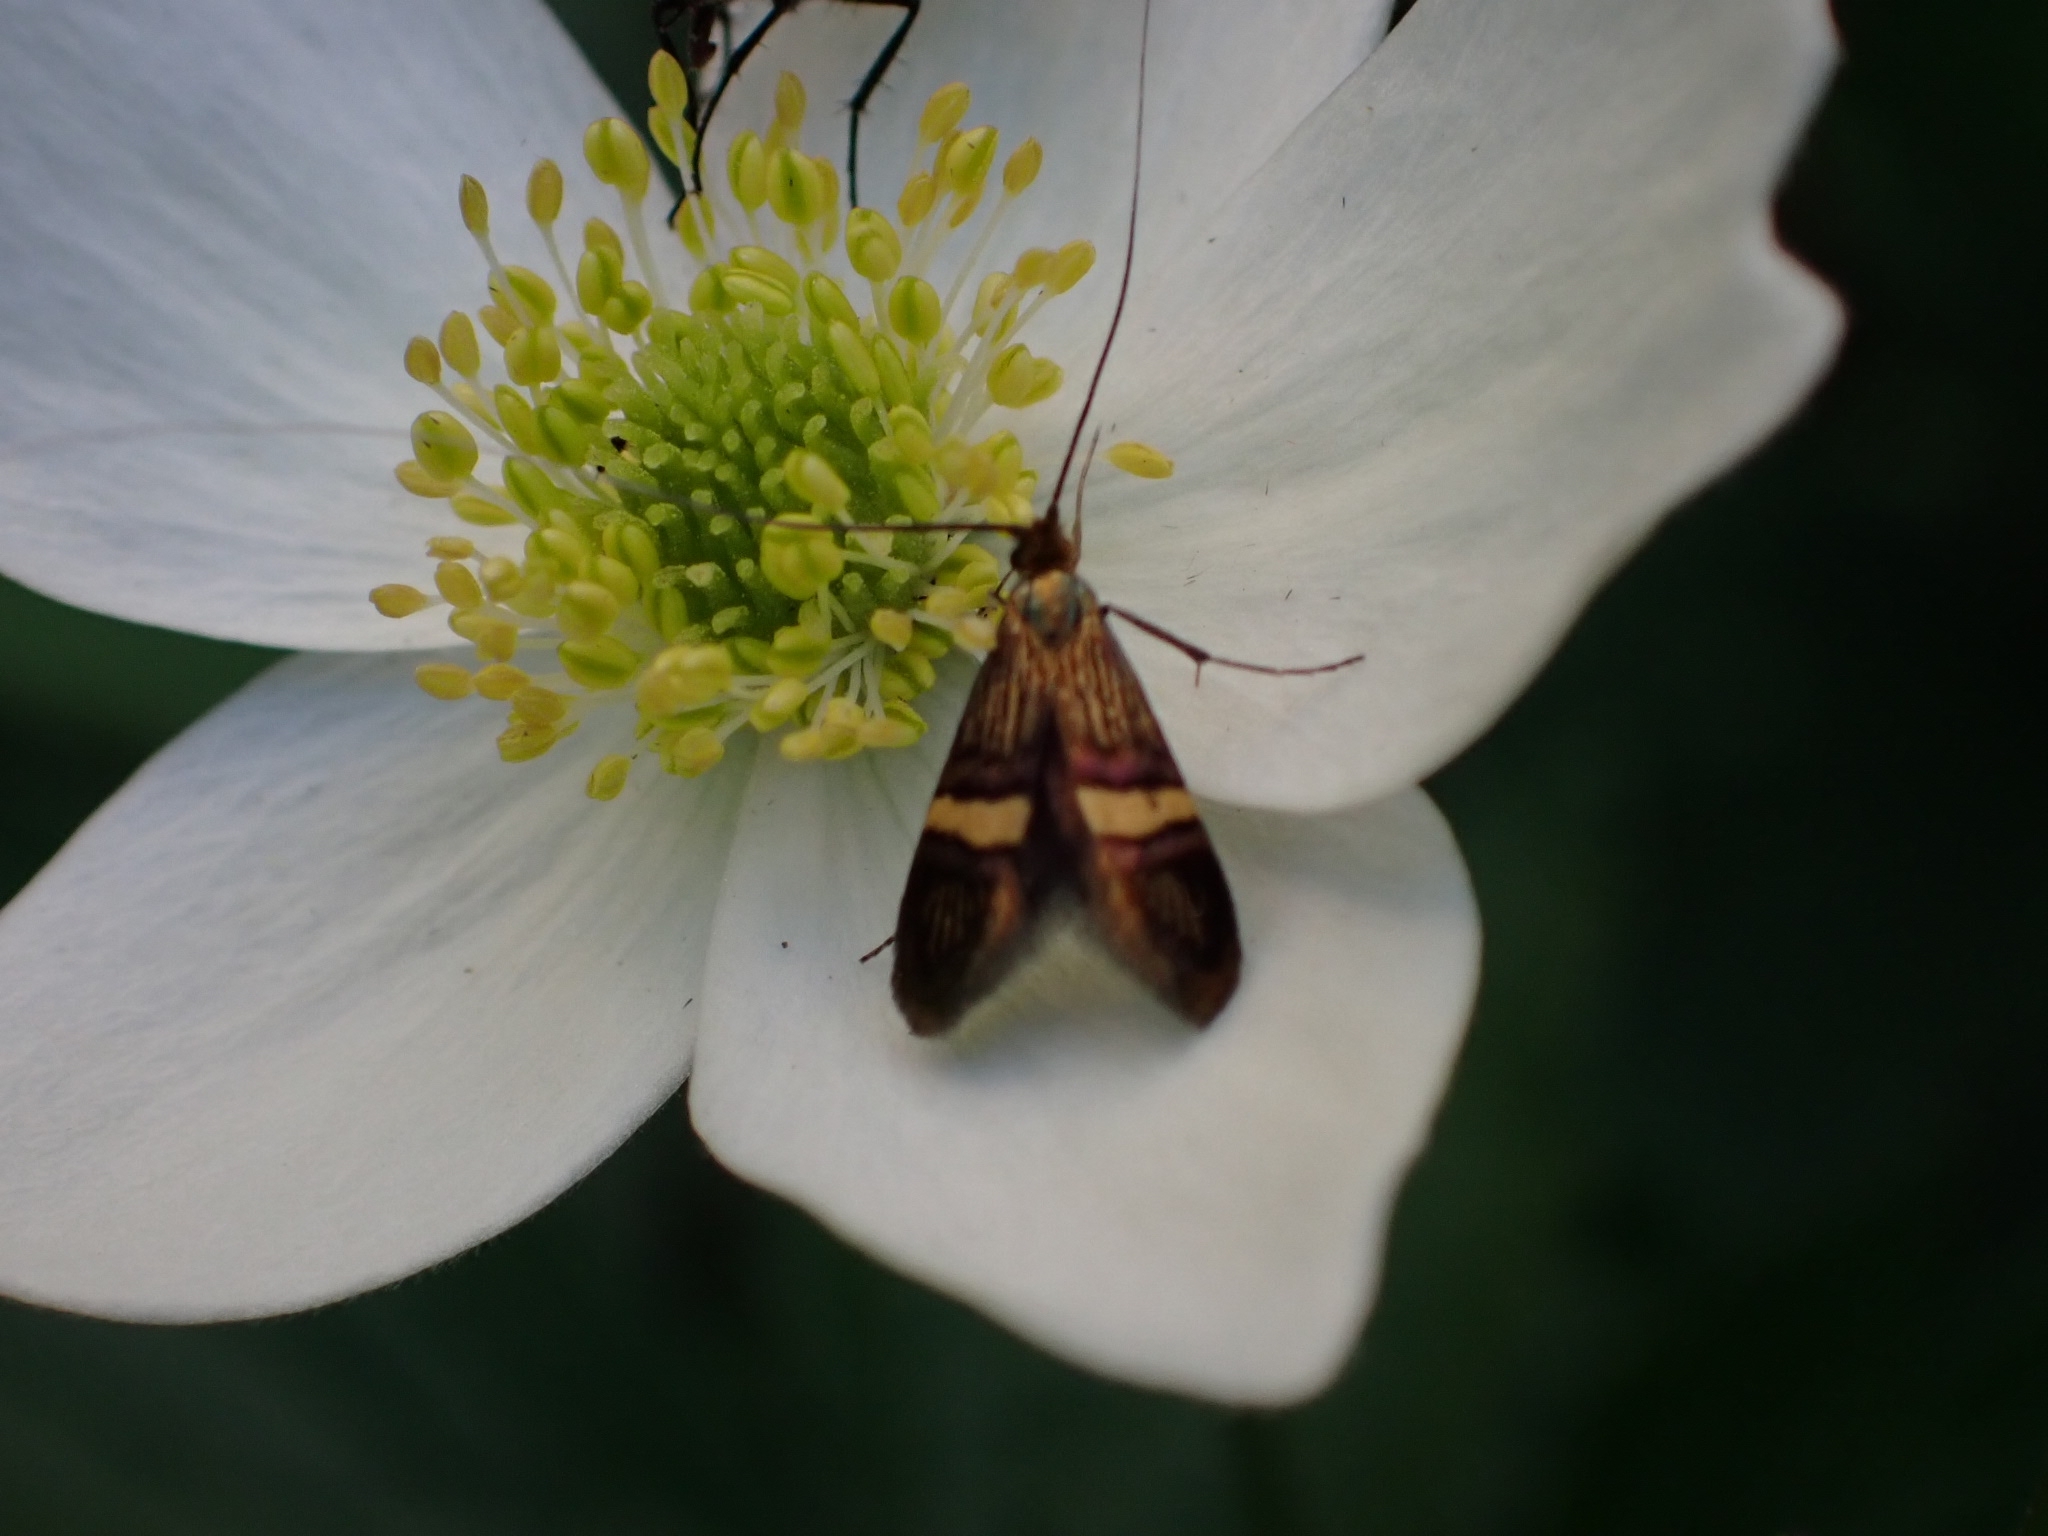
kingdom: Animalia
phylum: Arthropoda
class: Insecta
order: Lepidoptera
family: Adelidae
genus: Adela
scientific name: Adela croesella
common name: Small barred long-horn
